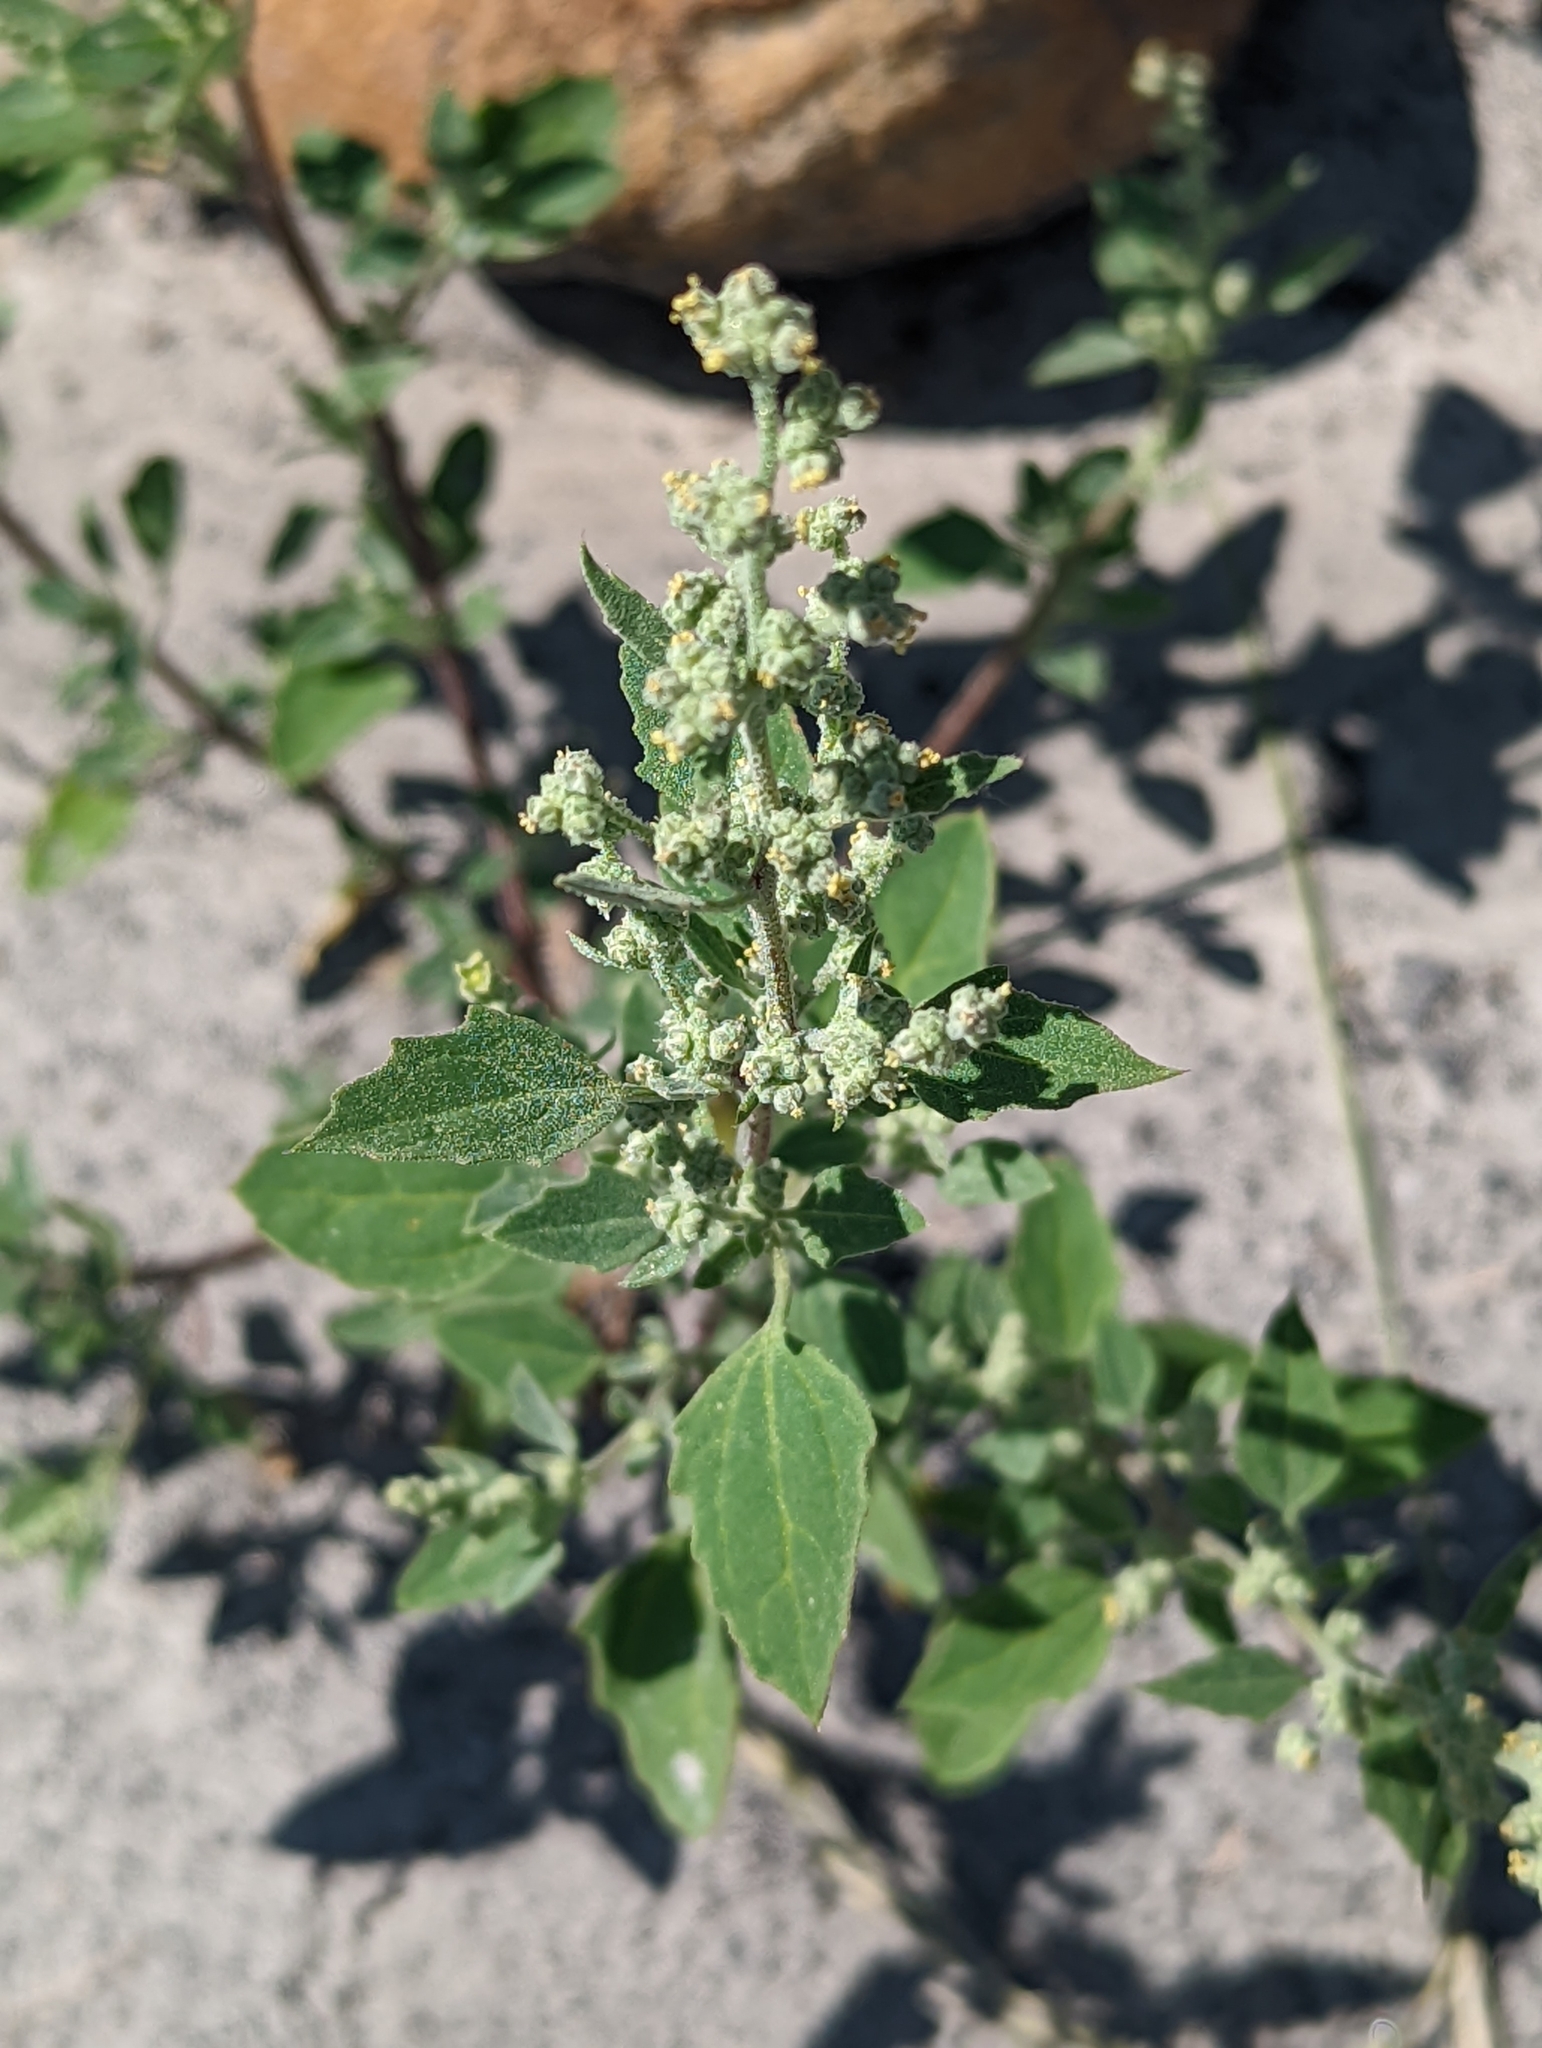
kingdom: Plantae
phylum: Tracheophyta
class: Magnoliopsida
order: Caryophyllales
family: Amaranthaceae
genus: Chenopodium
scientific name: Chenopodium album
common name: Fat-hen
